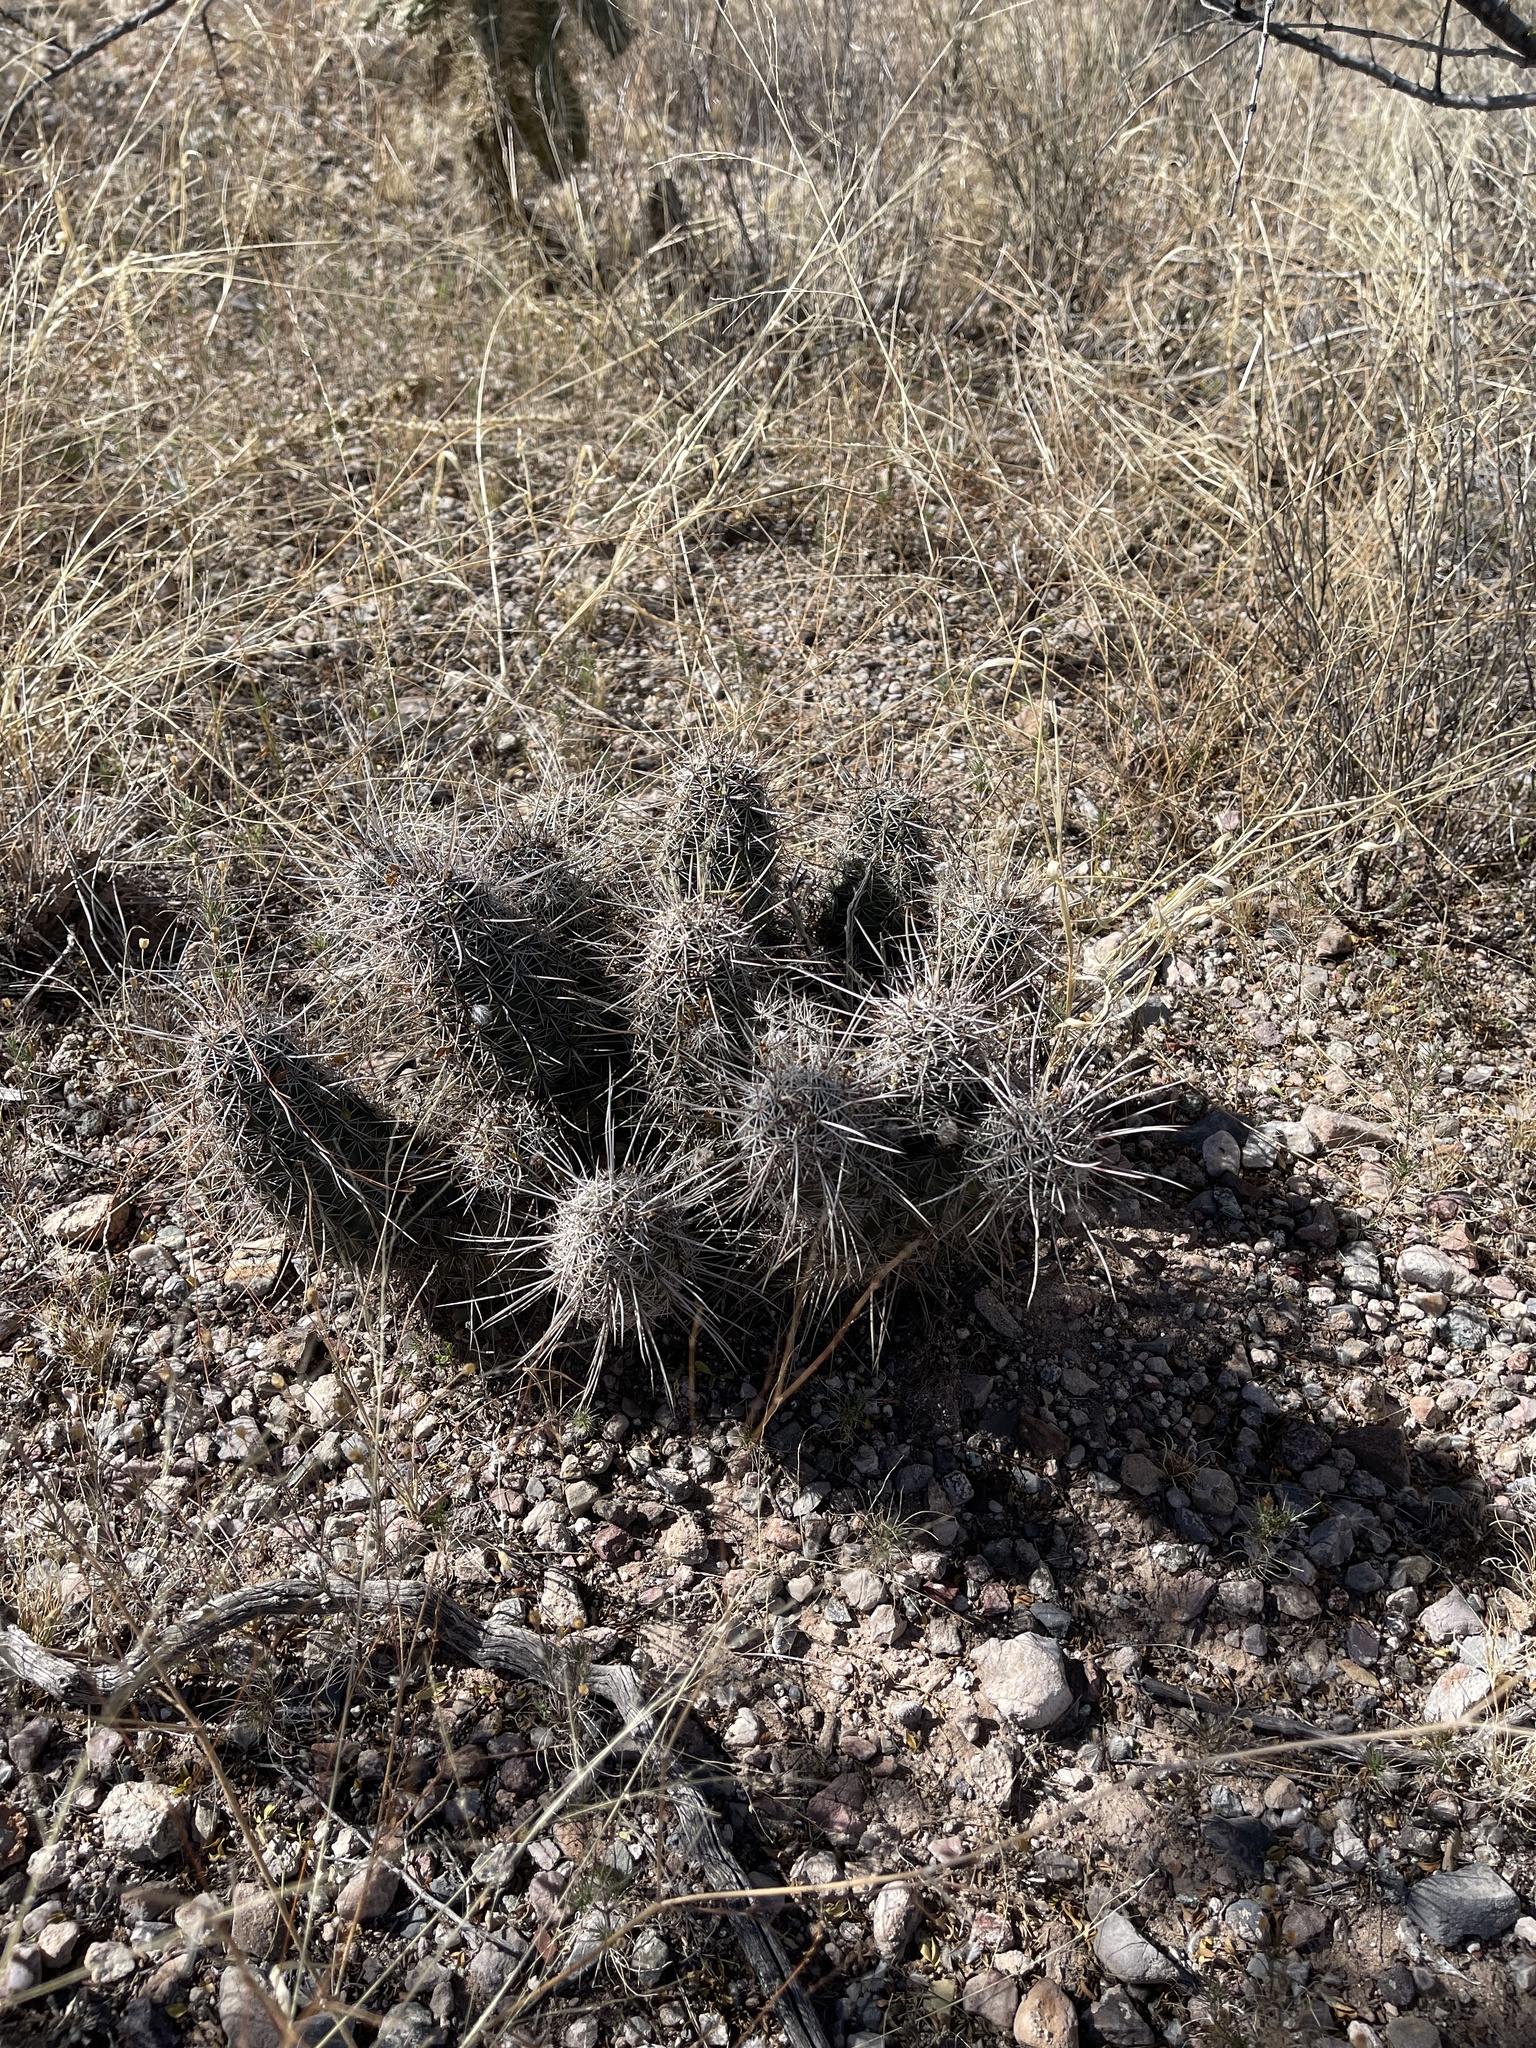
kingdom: Plantae
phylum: Tracheophyta
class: Magnoliopsida
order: Caryophyllales
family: Cactaceae
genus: Echinocereus
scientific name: Echinocereus fasciculatus
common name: Bundle hedgehog
